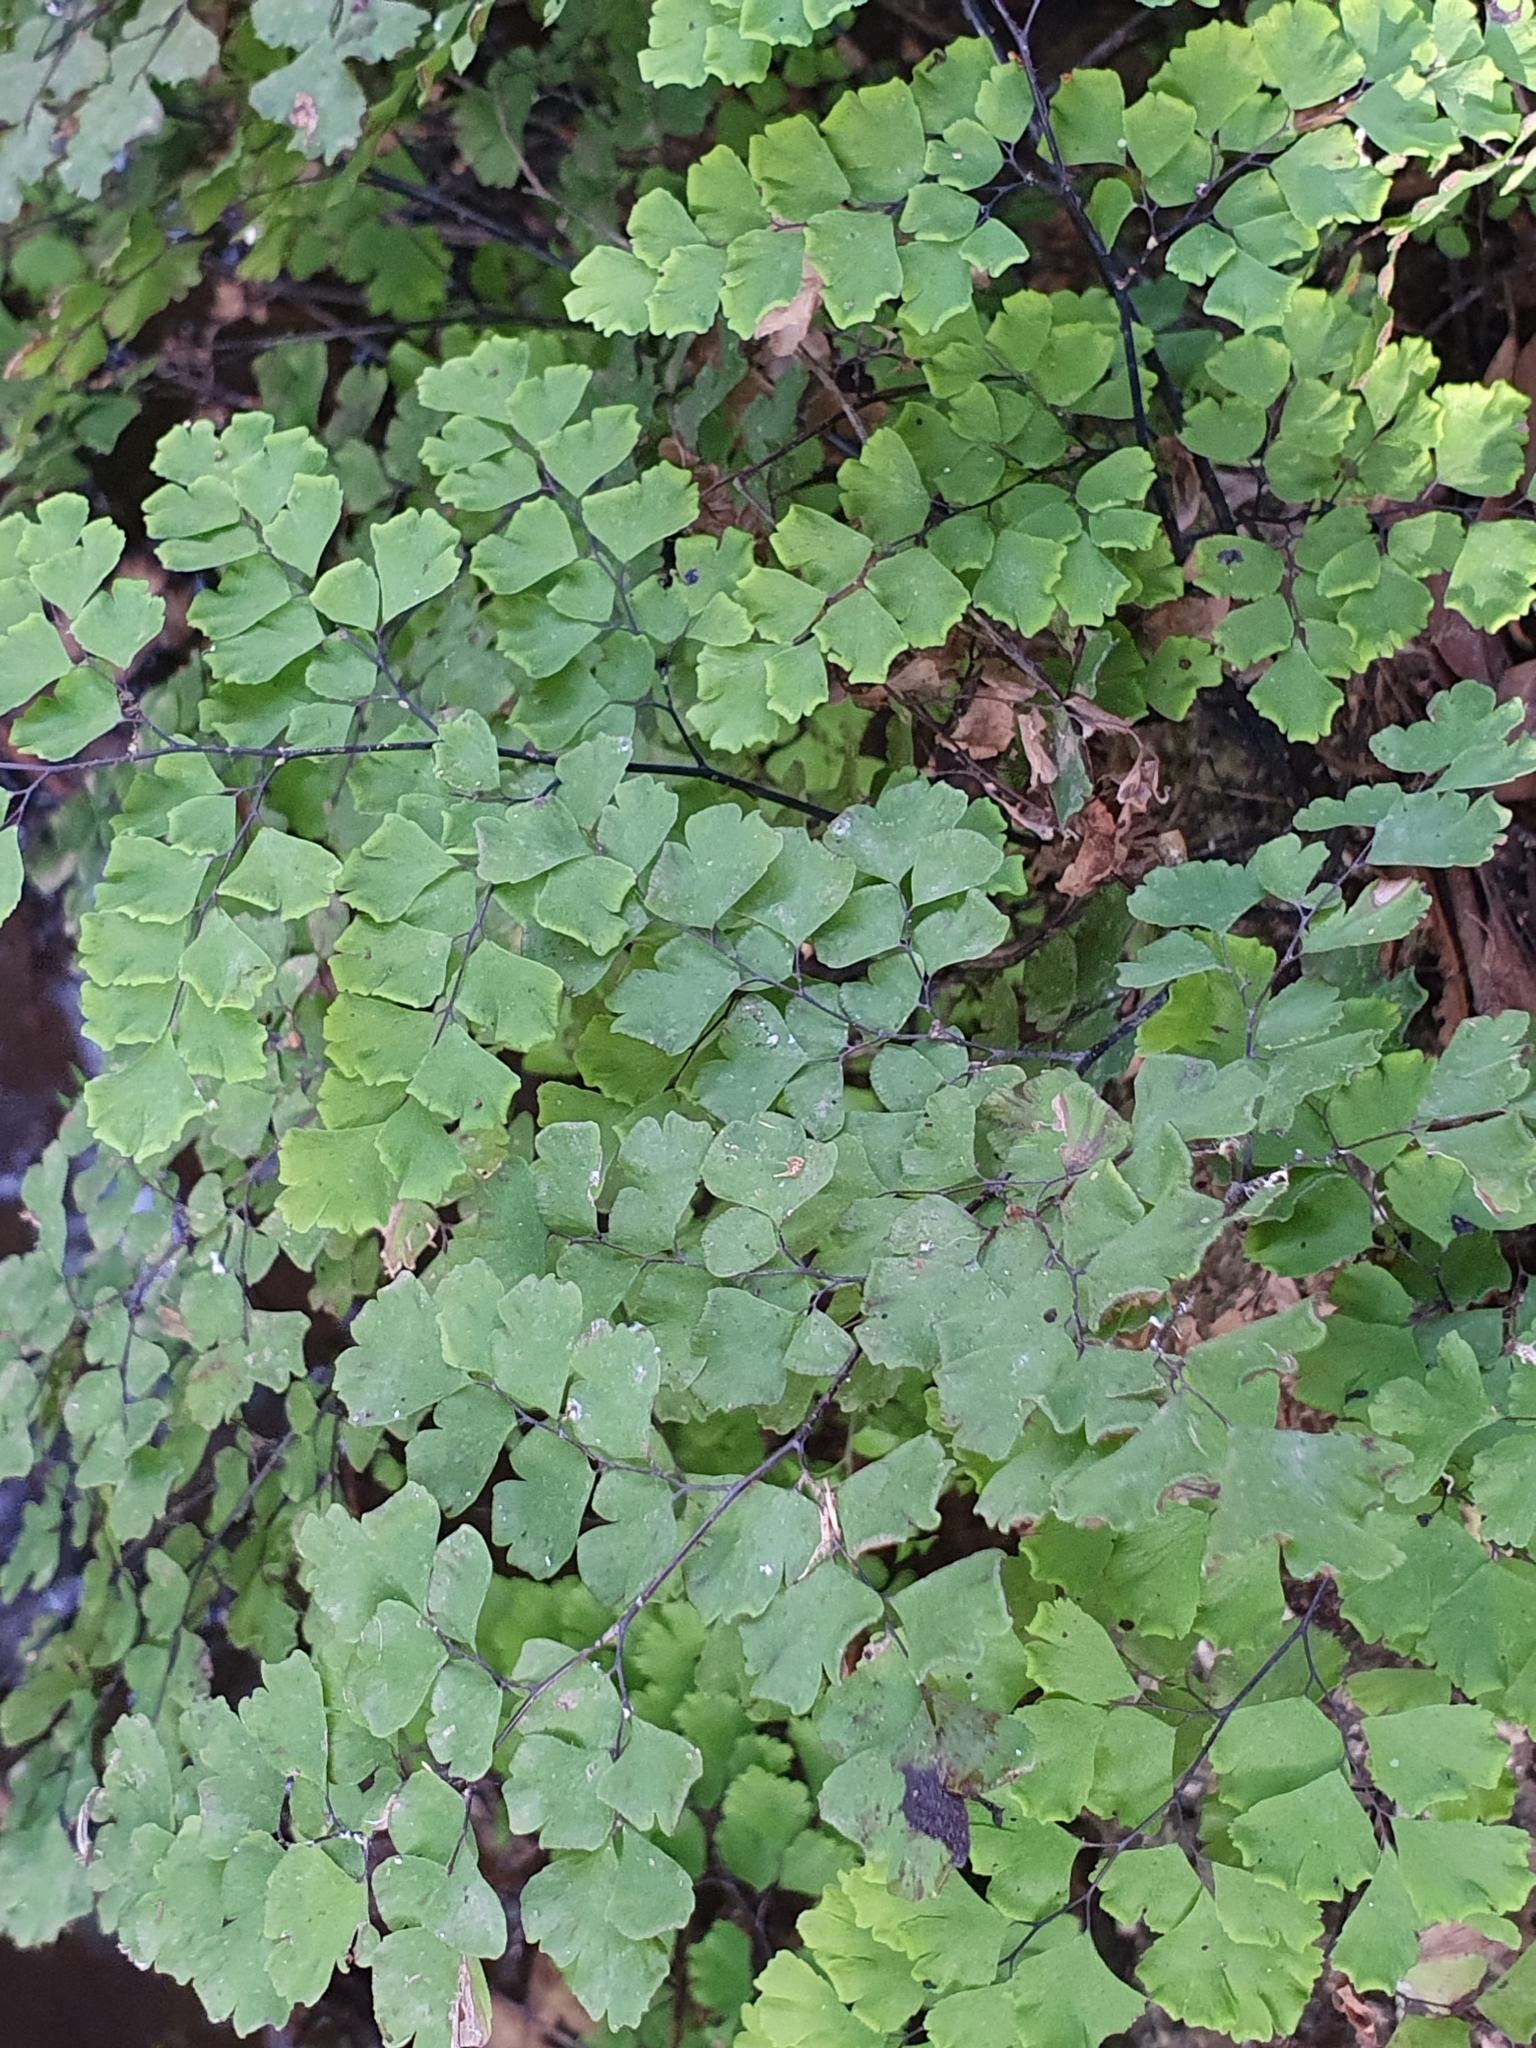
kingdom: Plantae
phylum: Tracheophyta
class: Polypodiopsida
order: Polypodiales
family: Pteridaceae
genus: Adiantum
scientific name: Adiantum capillus-veneris
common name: Maidenhair fern
